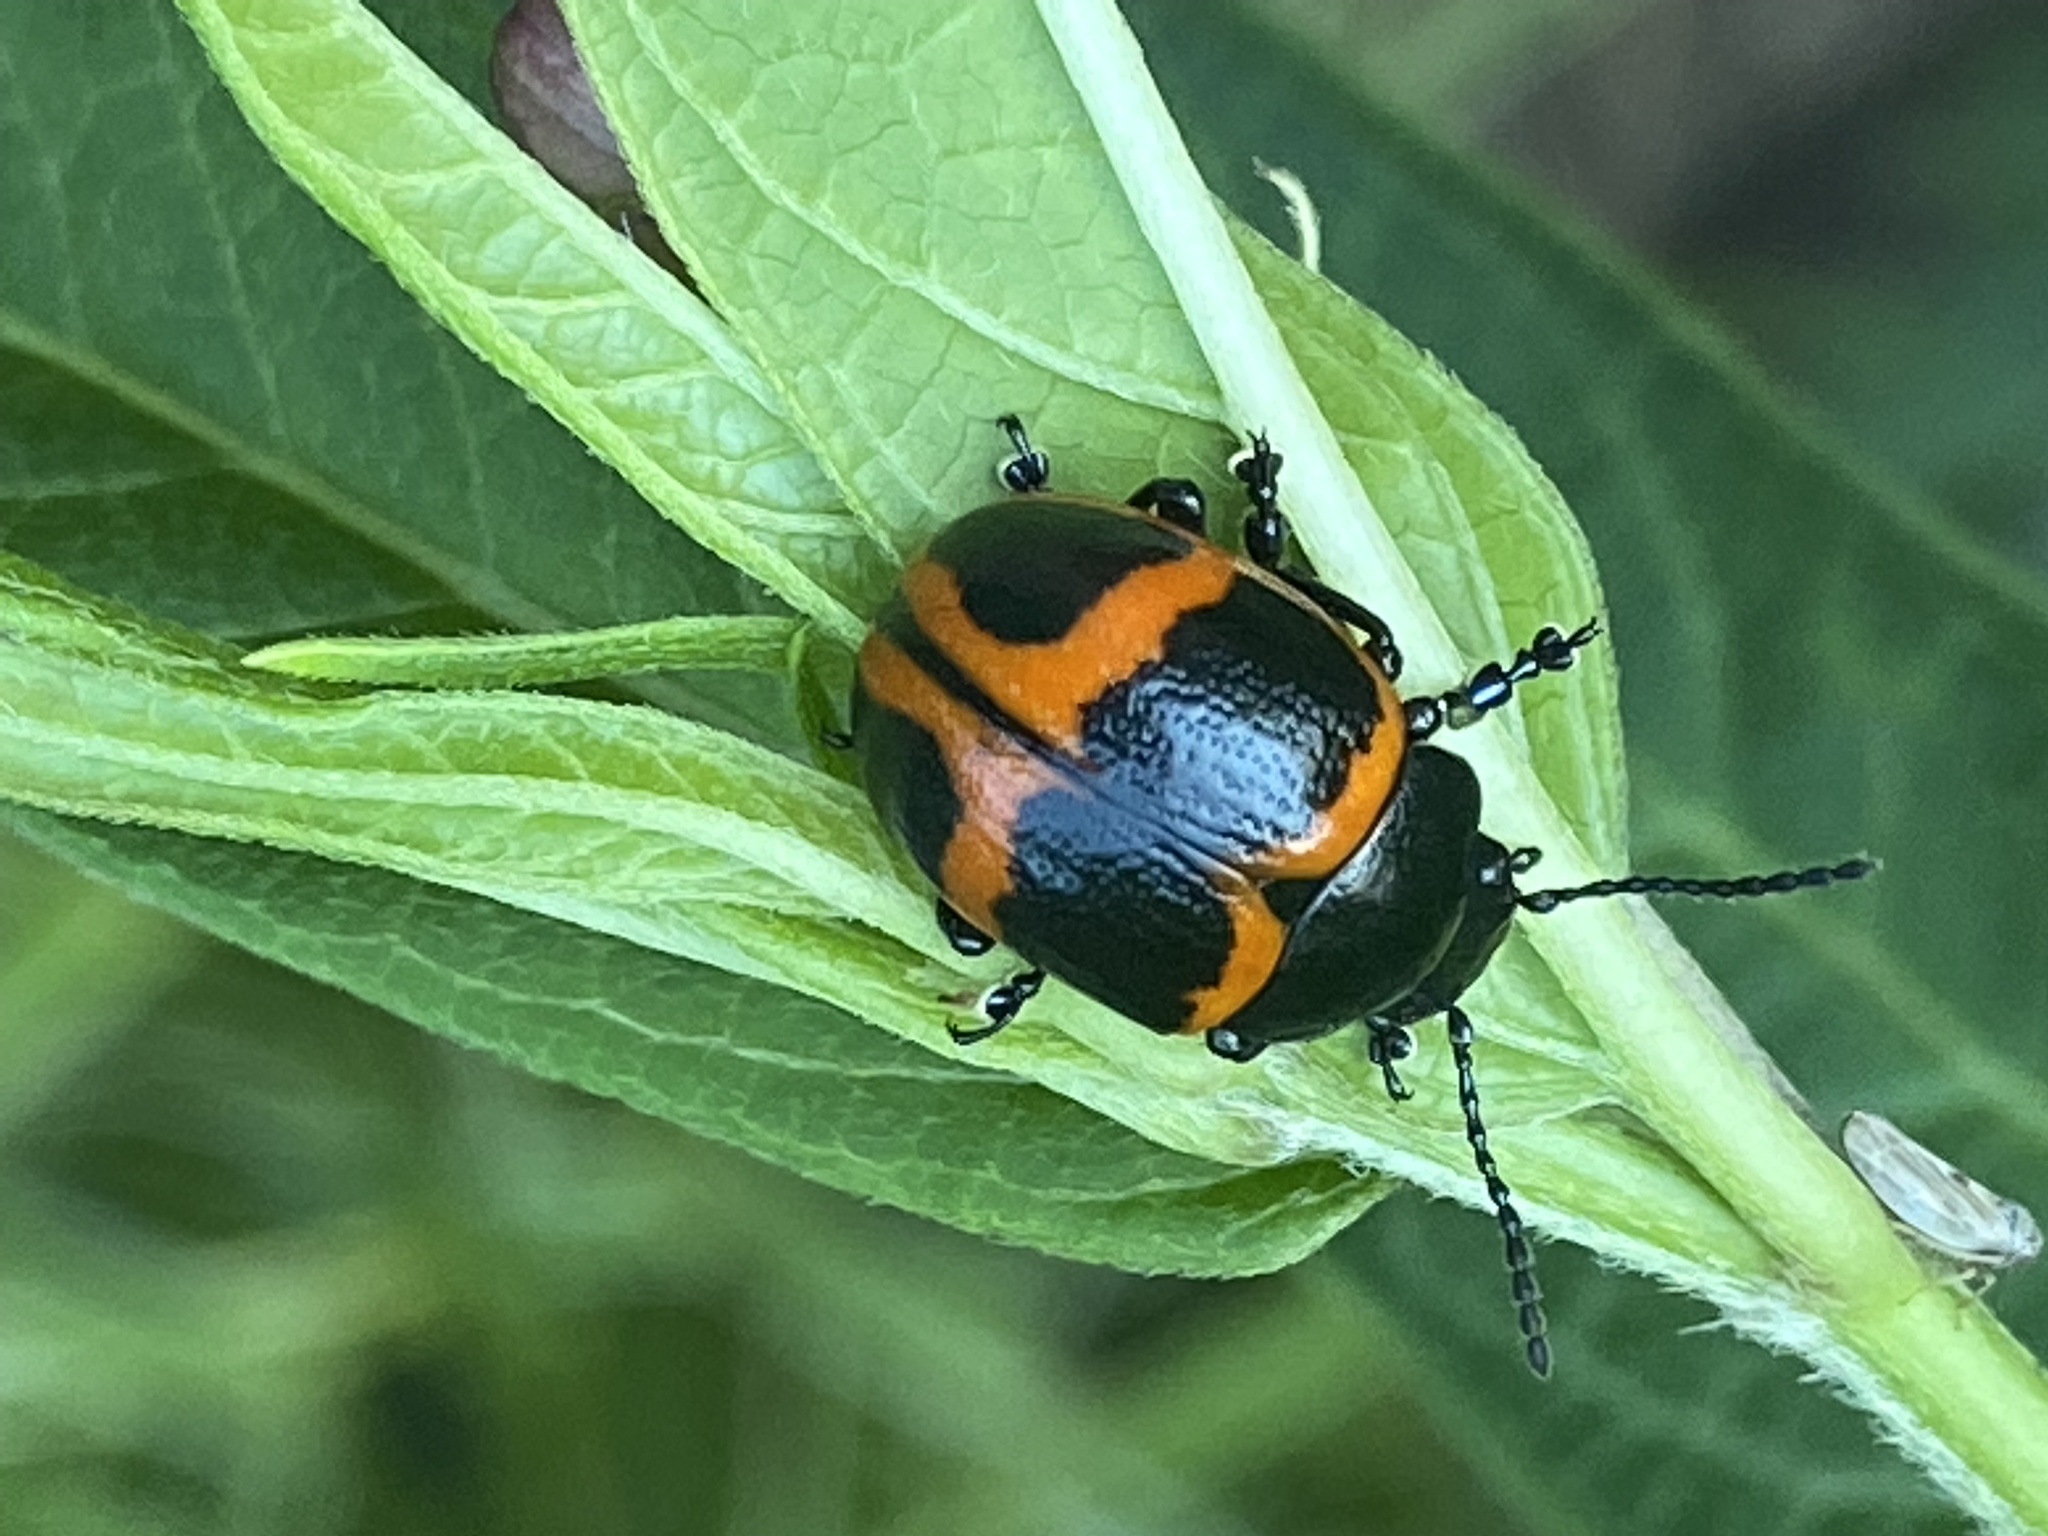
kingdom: Animalia
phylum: Arthropoda
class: Insecta
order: Coleoptera
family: Chrysomelidae
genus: Labidomera
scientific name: Labidomera clivicollis
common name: Swamp milkweed leaf beetle
